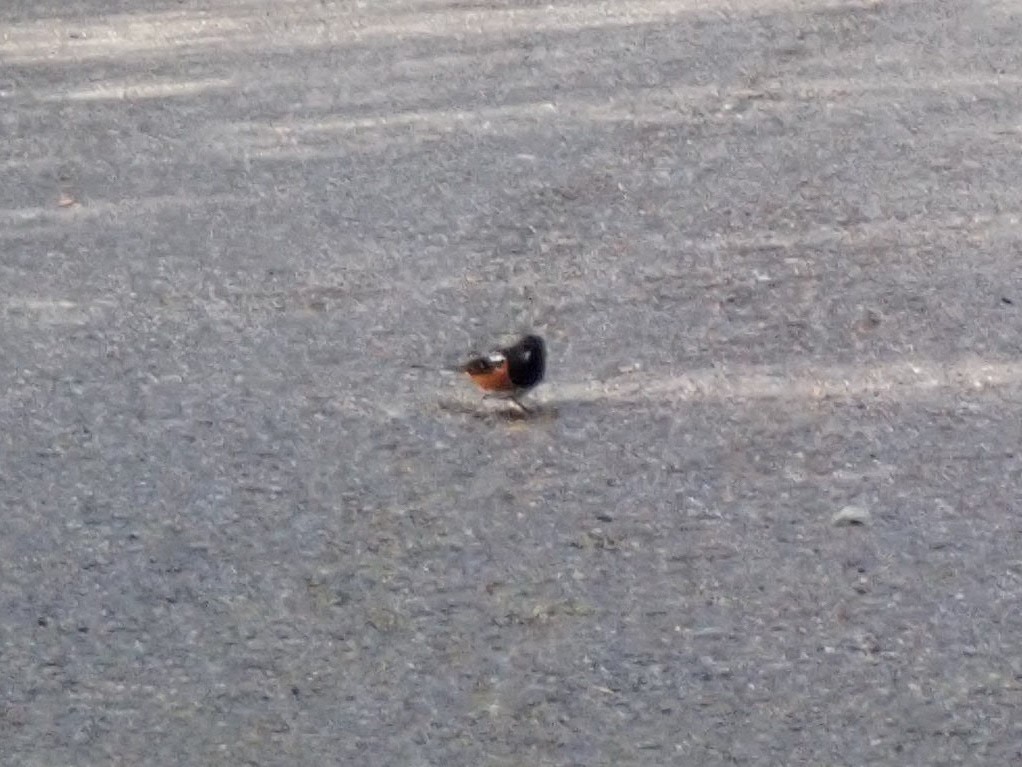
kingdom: Animalia
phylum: Chordata
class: Aves
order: Passeriformes
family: Passerellidae
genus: Pipilo
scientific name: Pipilo maculatus
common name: Spotted towhee
